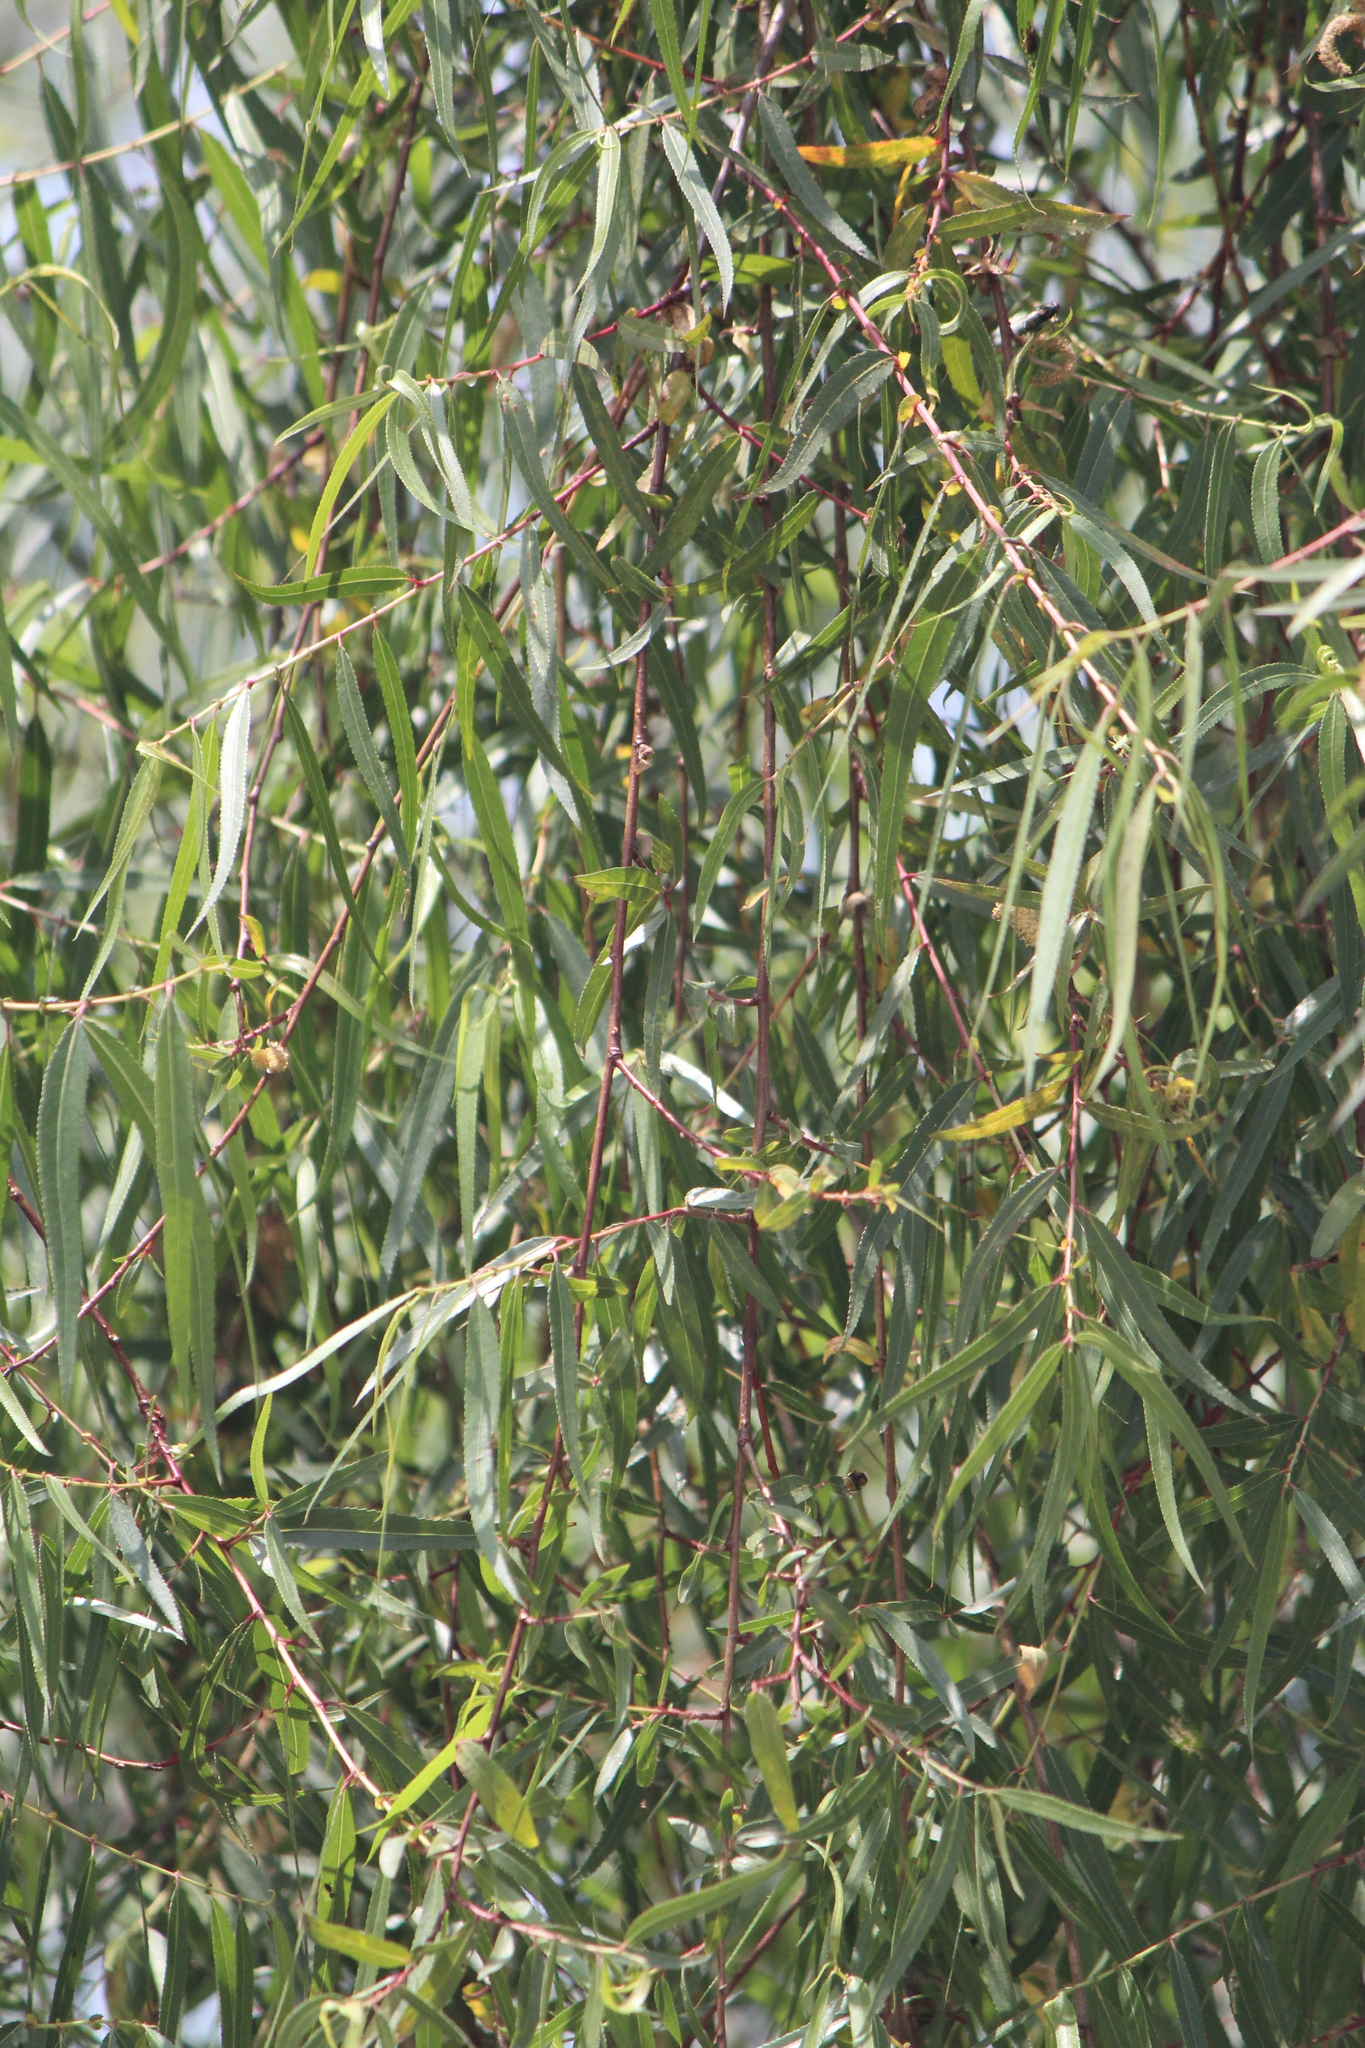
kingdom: Plantae
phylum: Tracheophyta
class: Magnoliopsida
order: Malpighiales
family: Salicaceae
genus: Salix
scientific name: Salix humboldtiana
